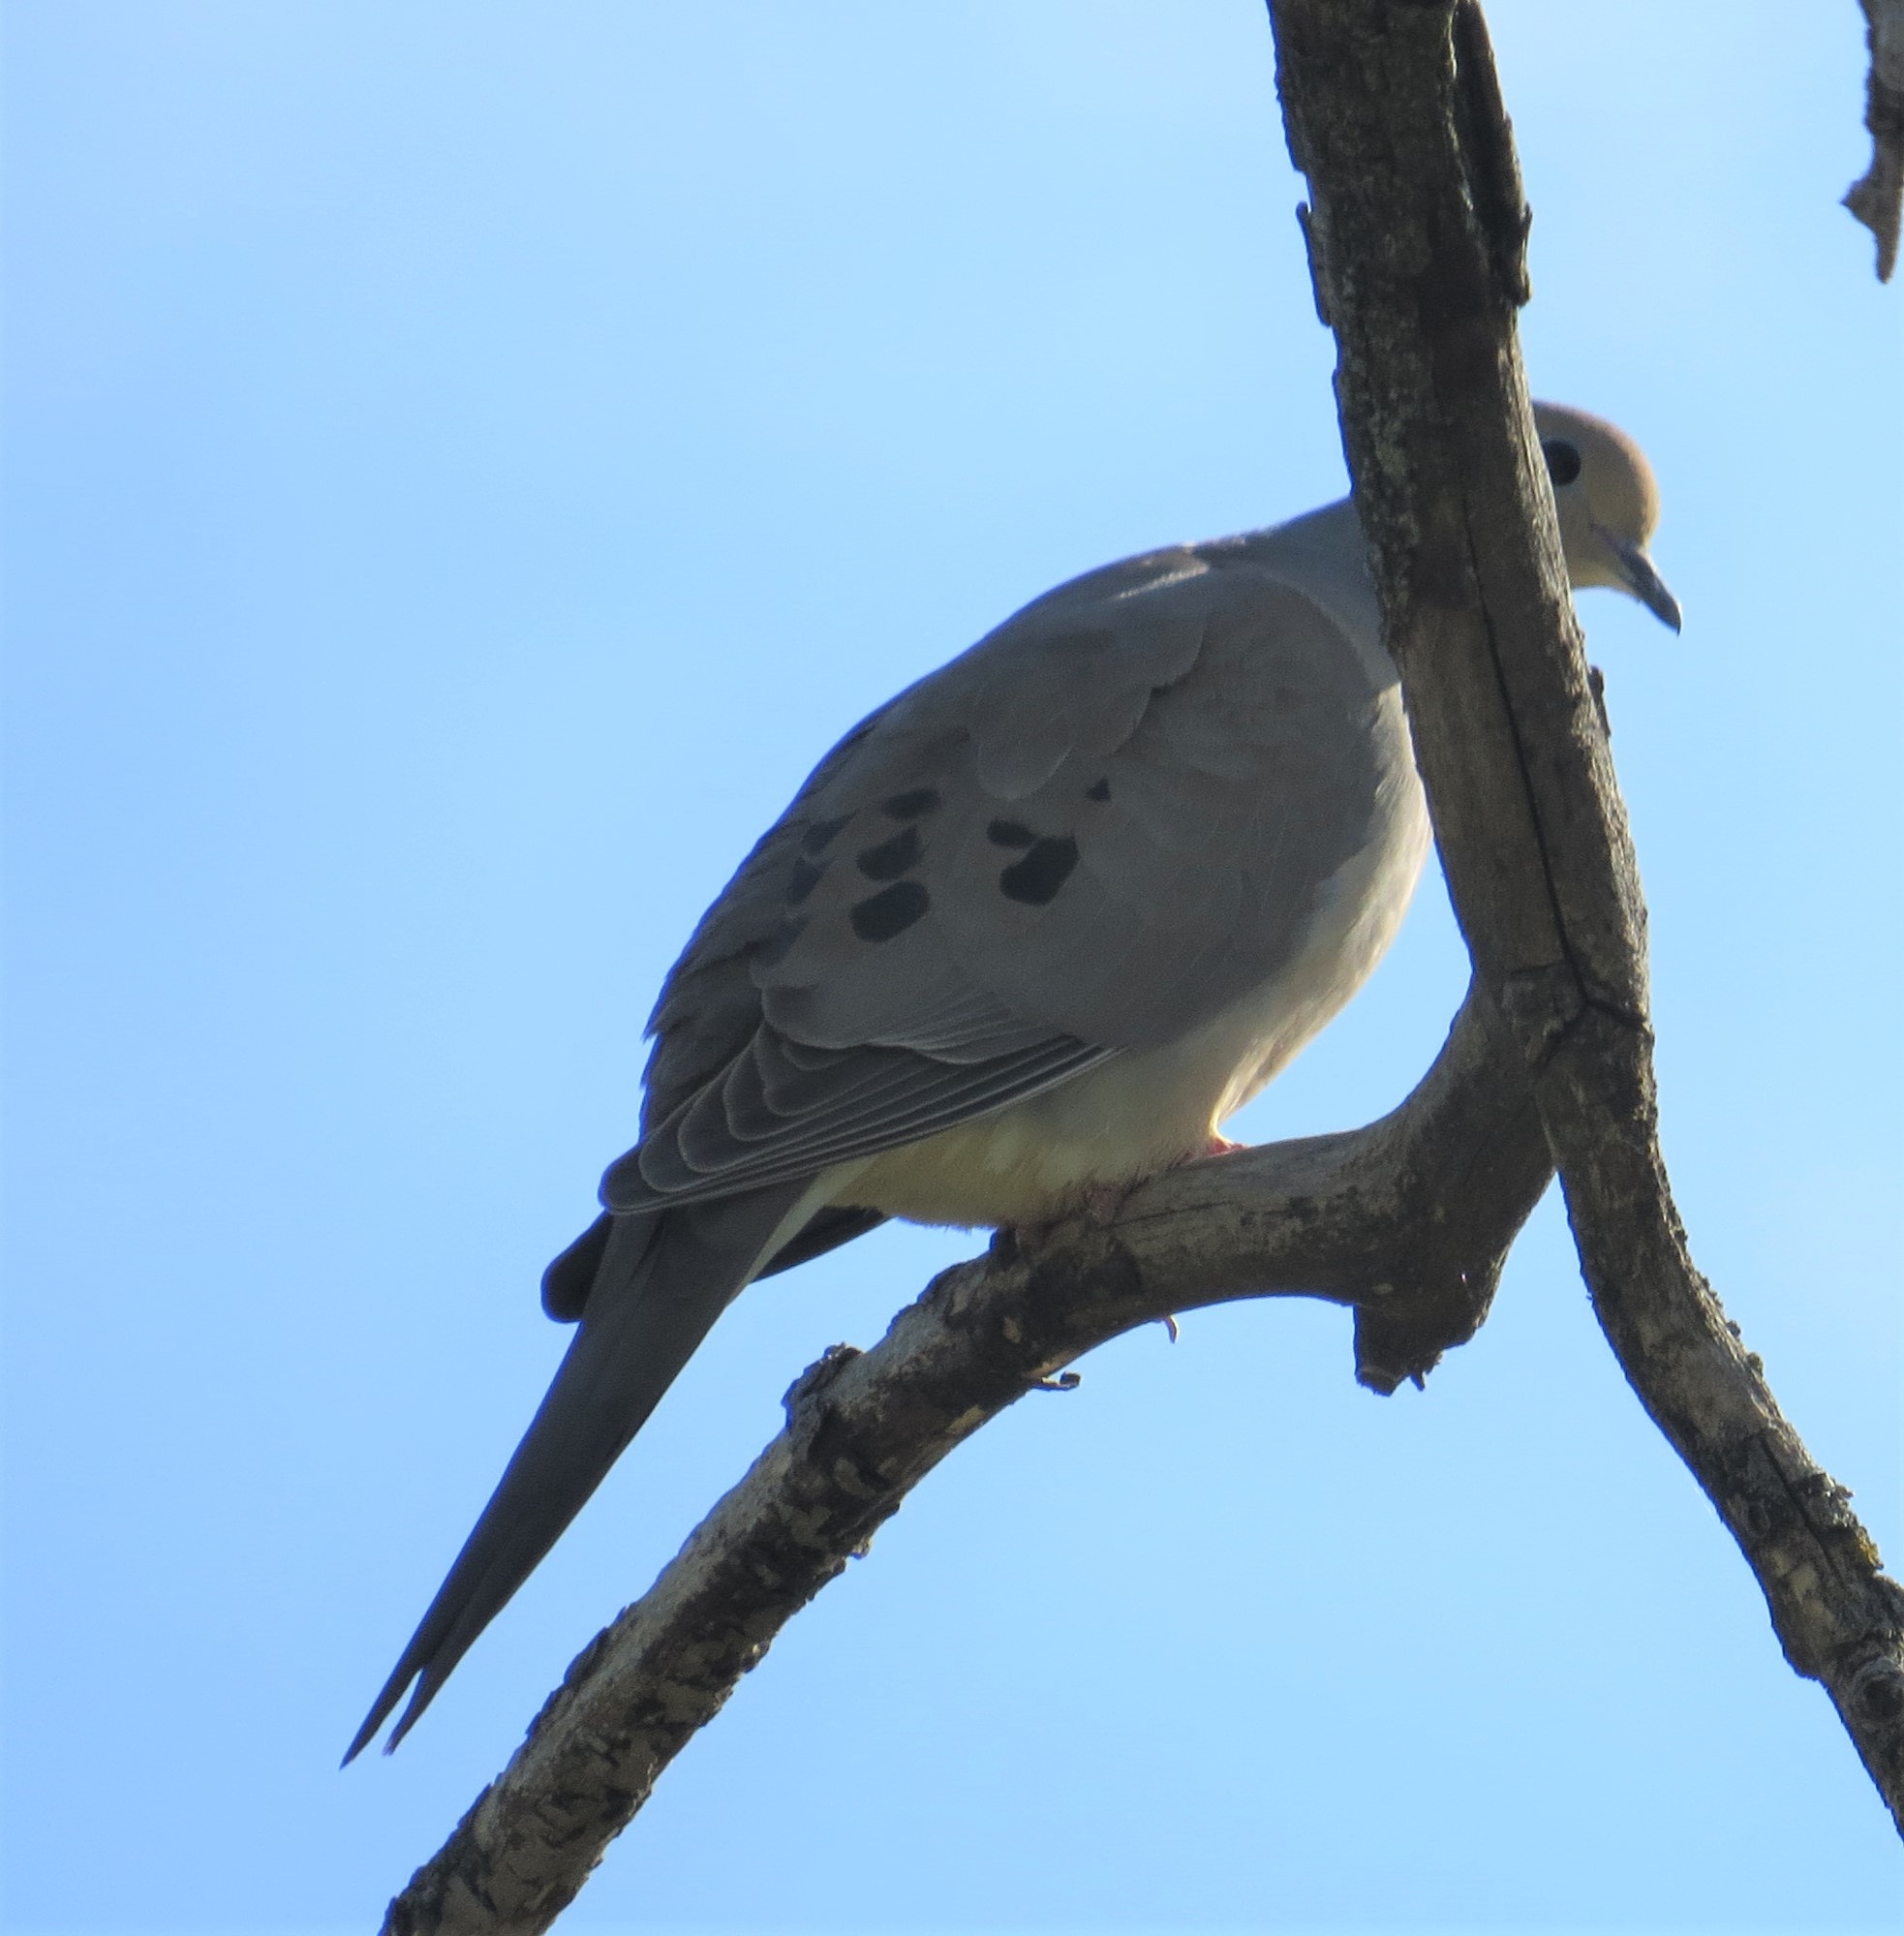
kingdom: Animalia
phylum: Chordata
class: Aves
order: Columbiformes
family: Columbidae
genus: Zenaida
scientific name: Zenaida macroura
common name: Mourning dove
